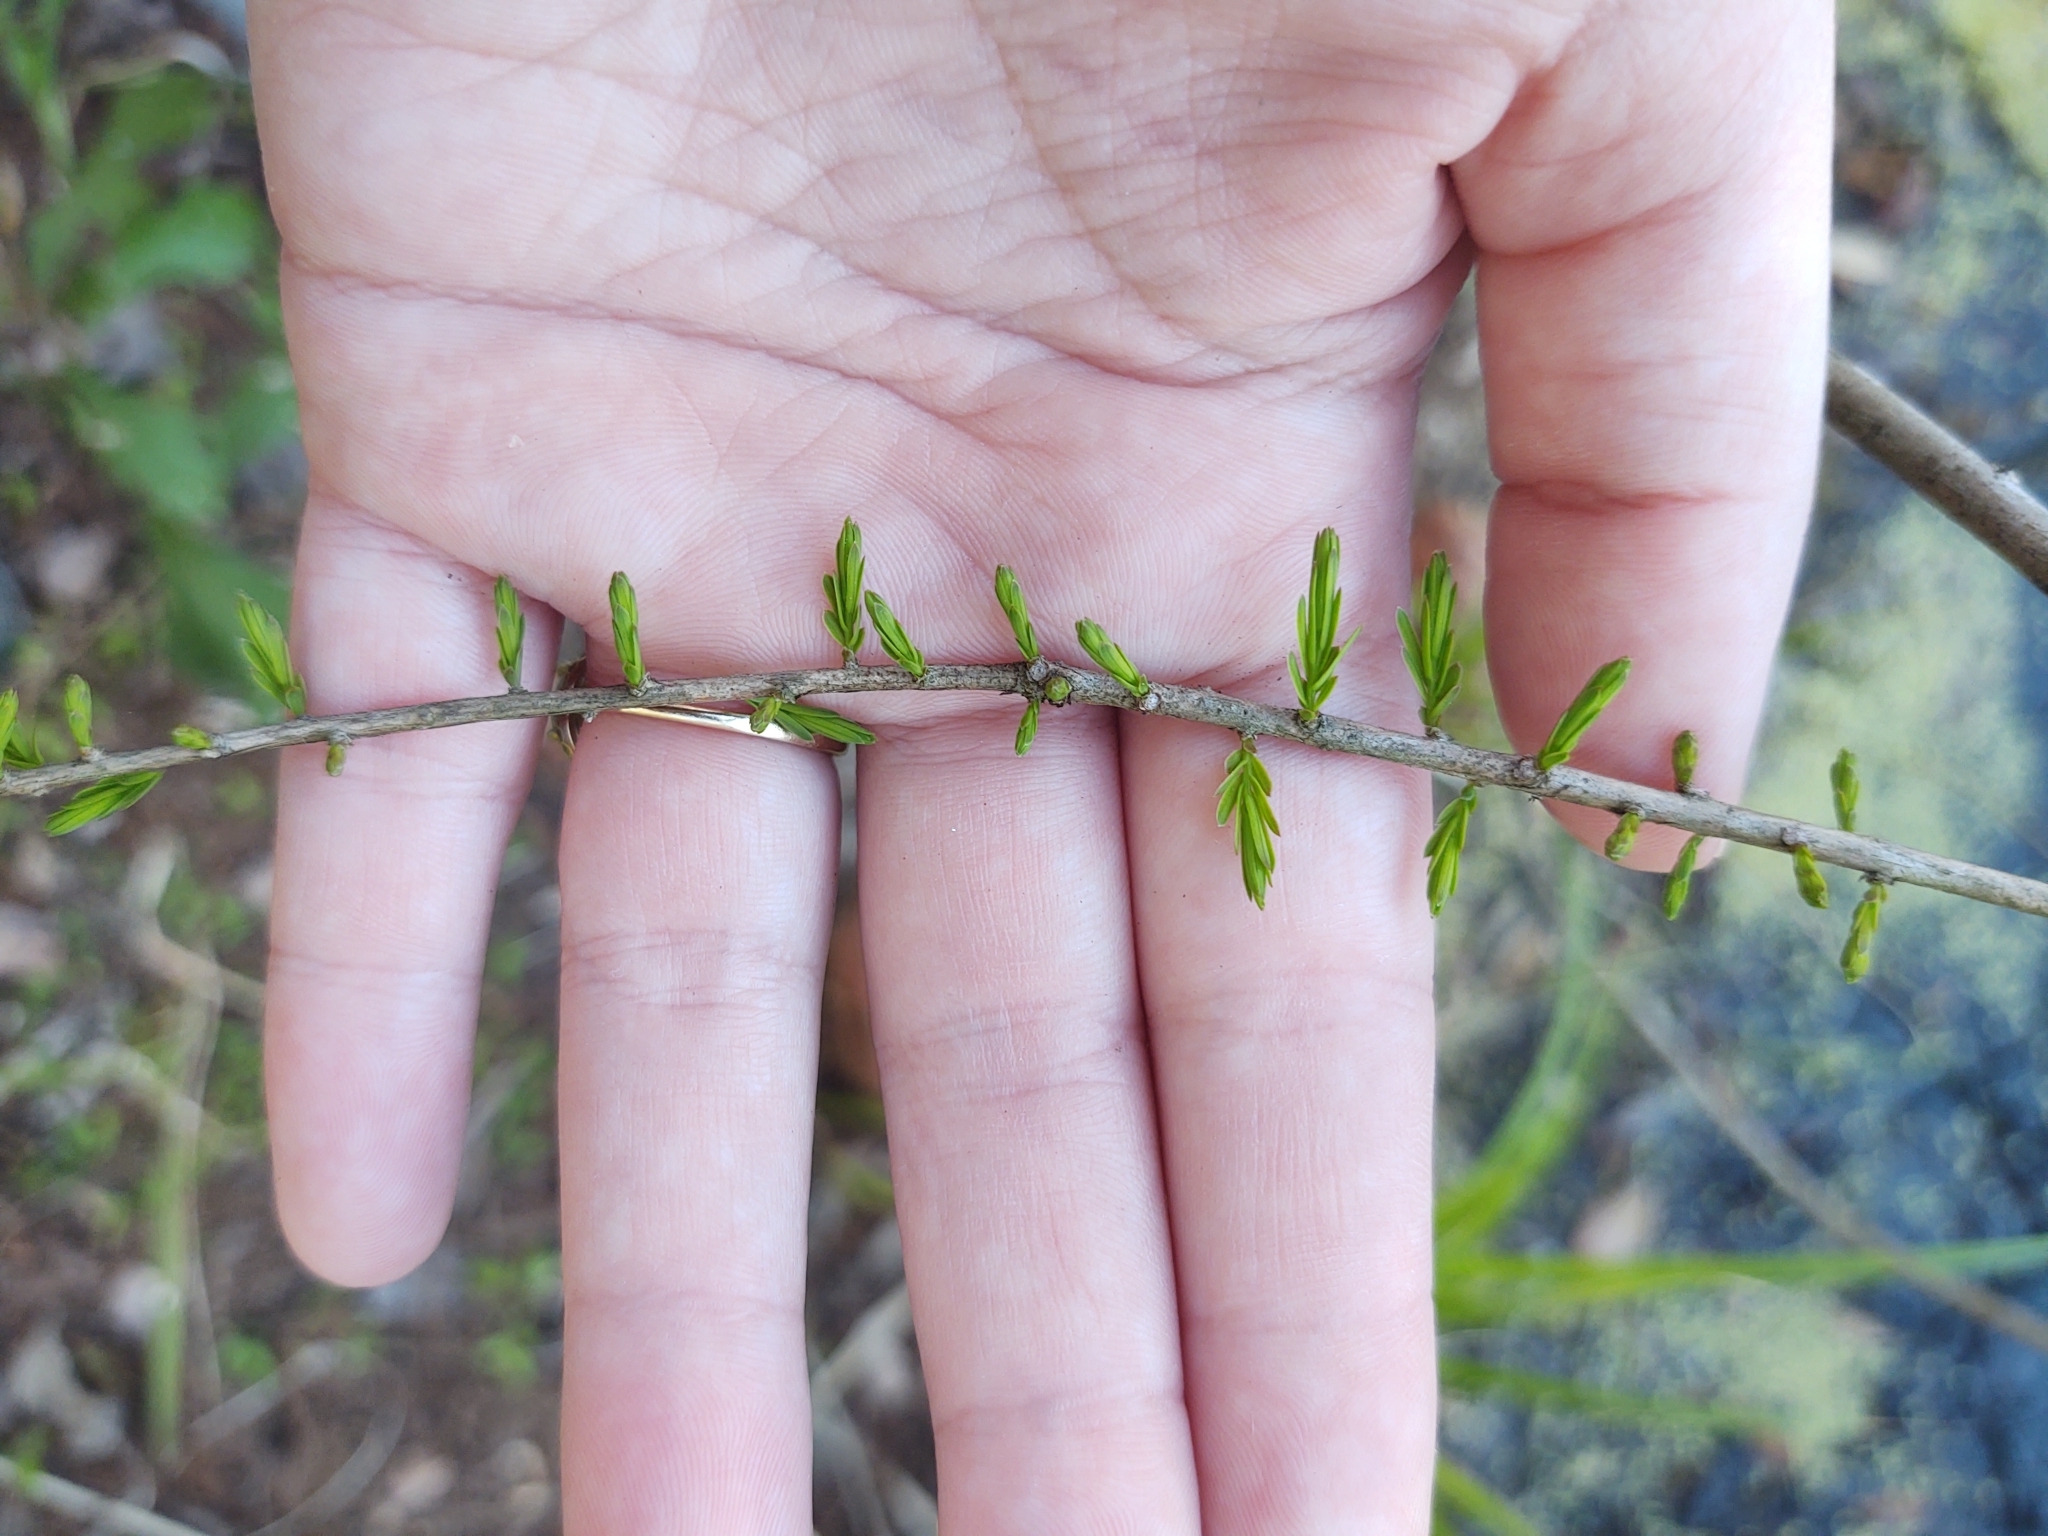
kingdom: Plantae
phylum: Tracheophyta
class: Pinopsida
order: Pinales
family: Cupressaceae
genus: Taxodium
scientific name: Taxodium distichum
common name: Bald cypress
